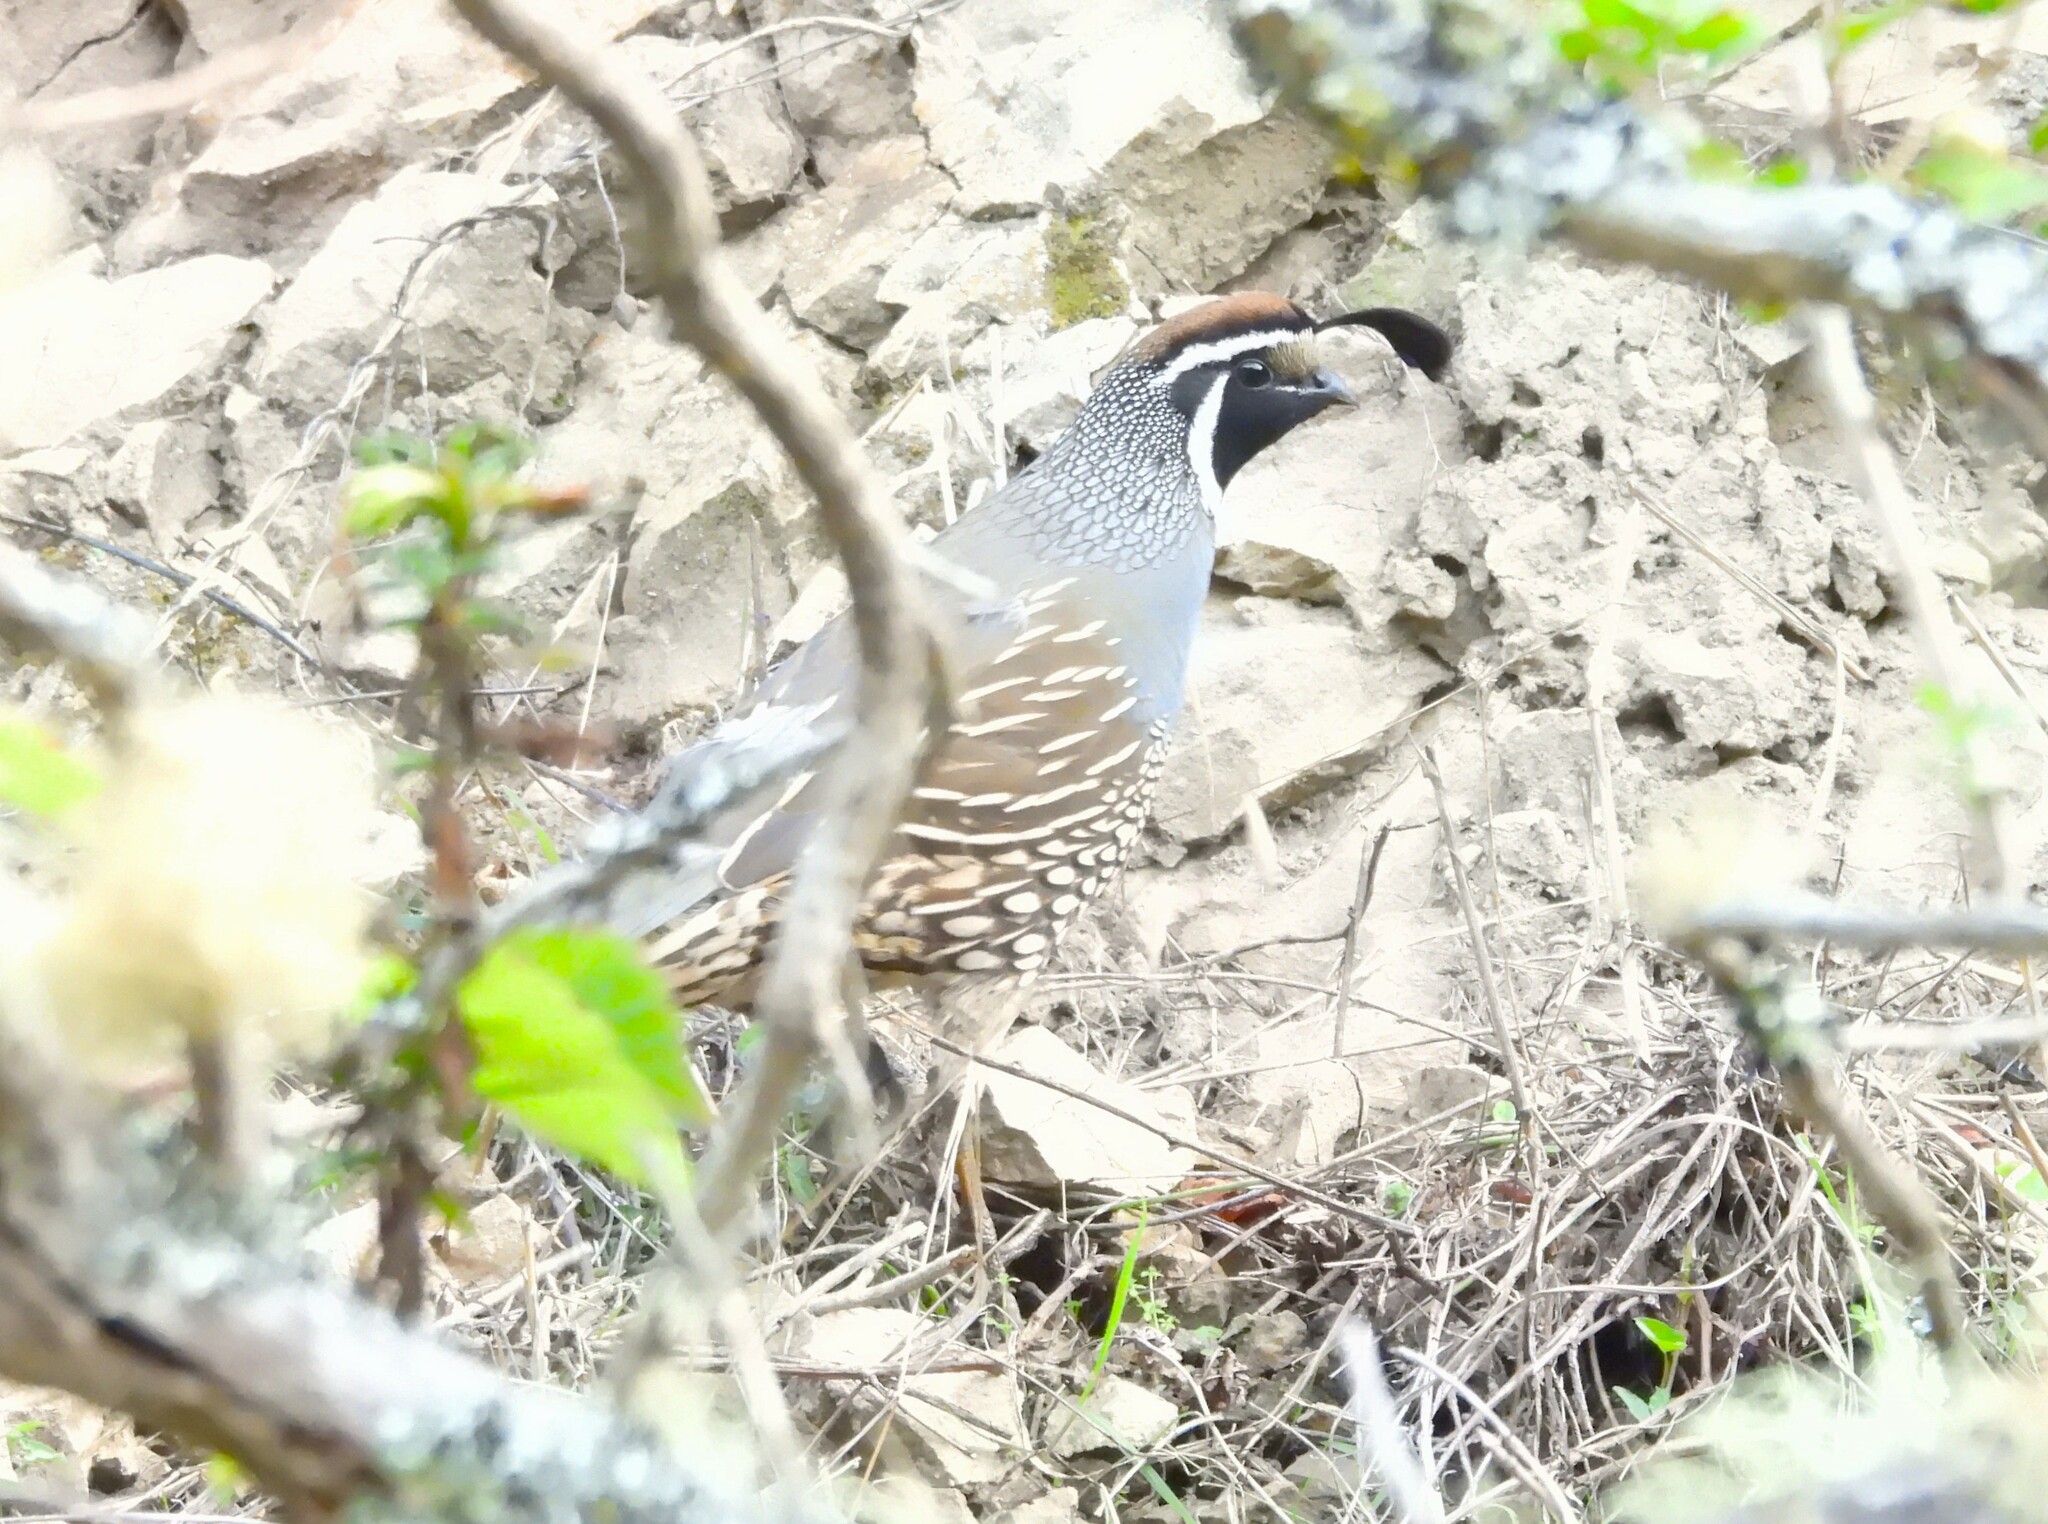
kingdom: Animalia
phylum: Chordata
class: Aves
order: Galliformes
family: Odontophoridae
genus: Callipepla
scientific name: Callipepla californica
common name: California quail
